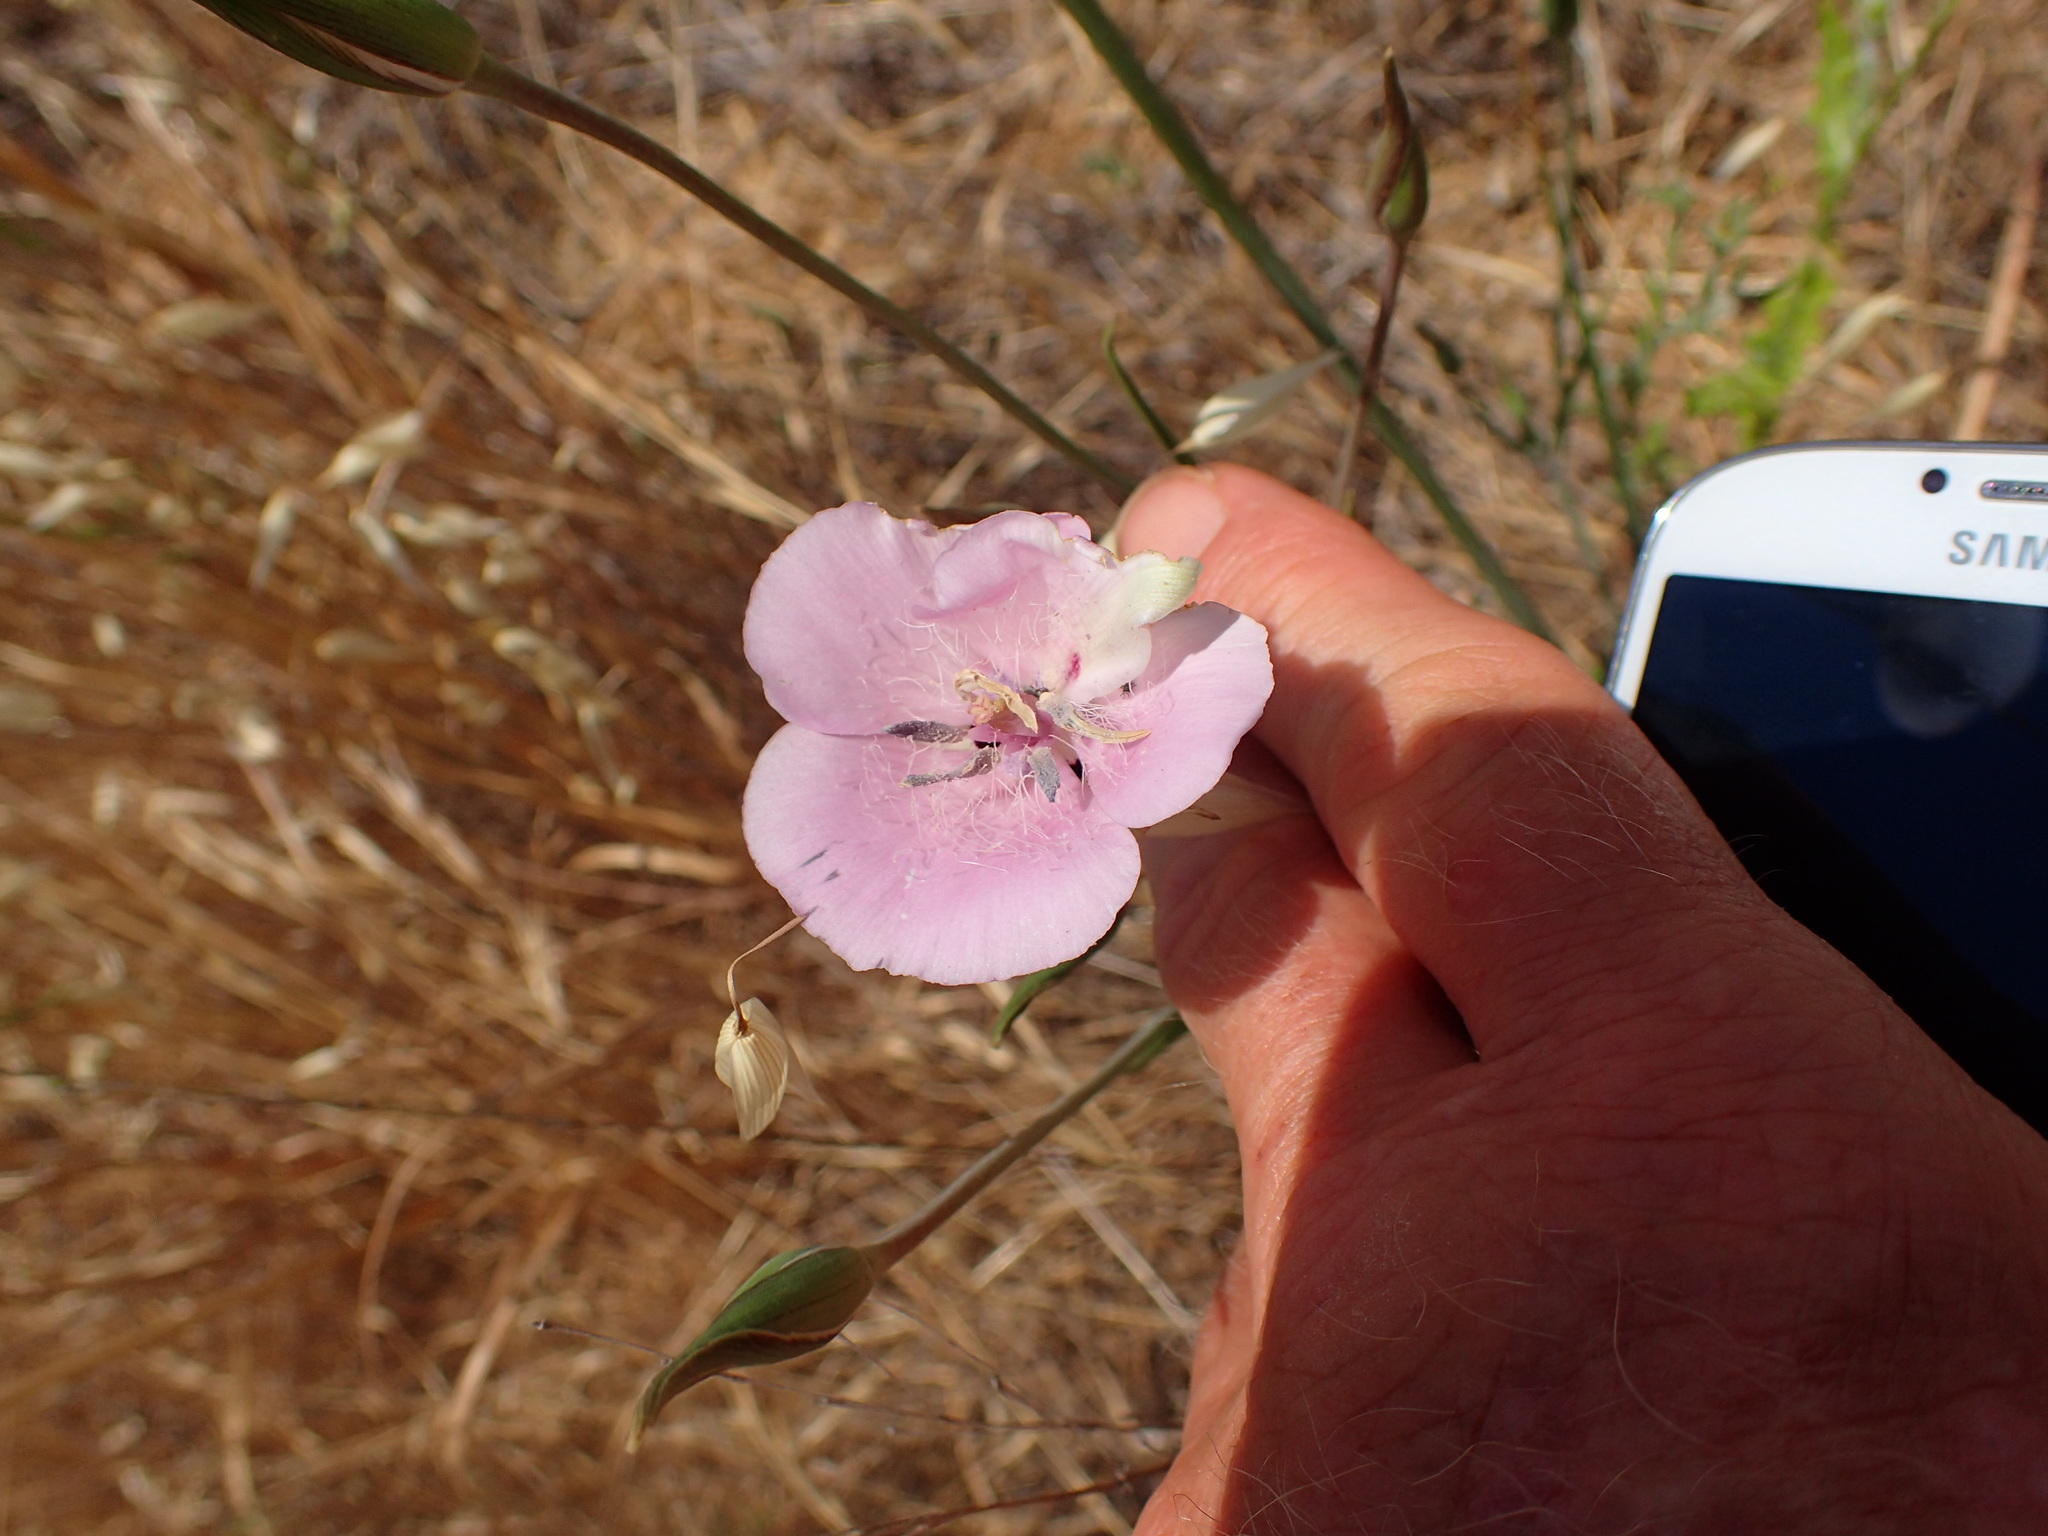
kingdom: Plantae
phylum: Tracheophyta
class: Liliopsida
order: Liliales
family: Liliaceae
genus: Calochortus
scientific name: Calochortus splendens
